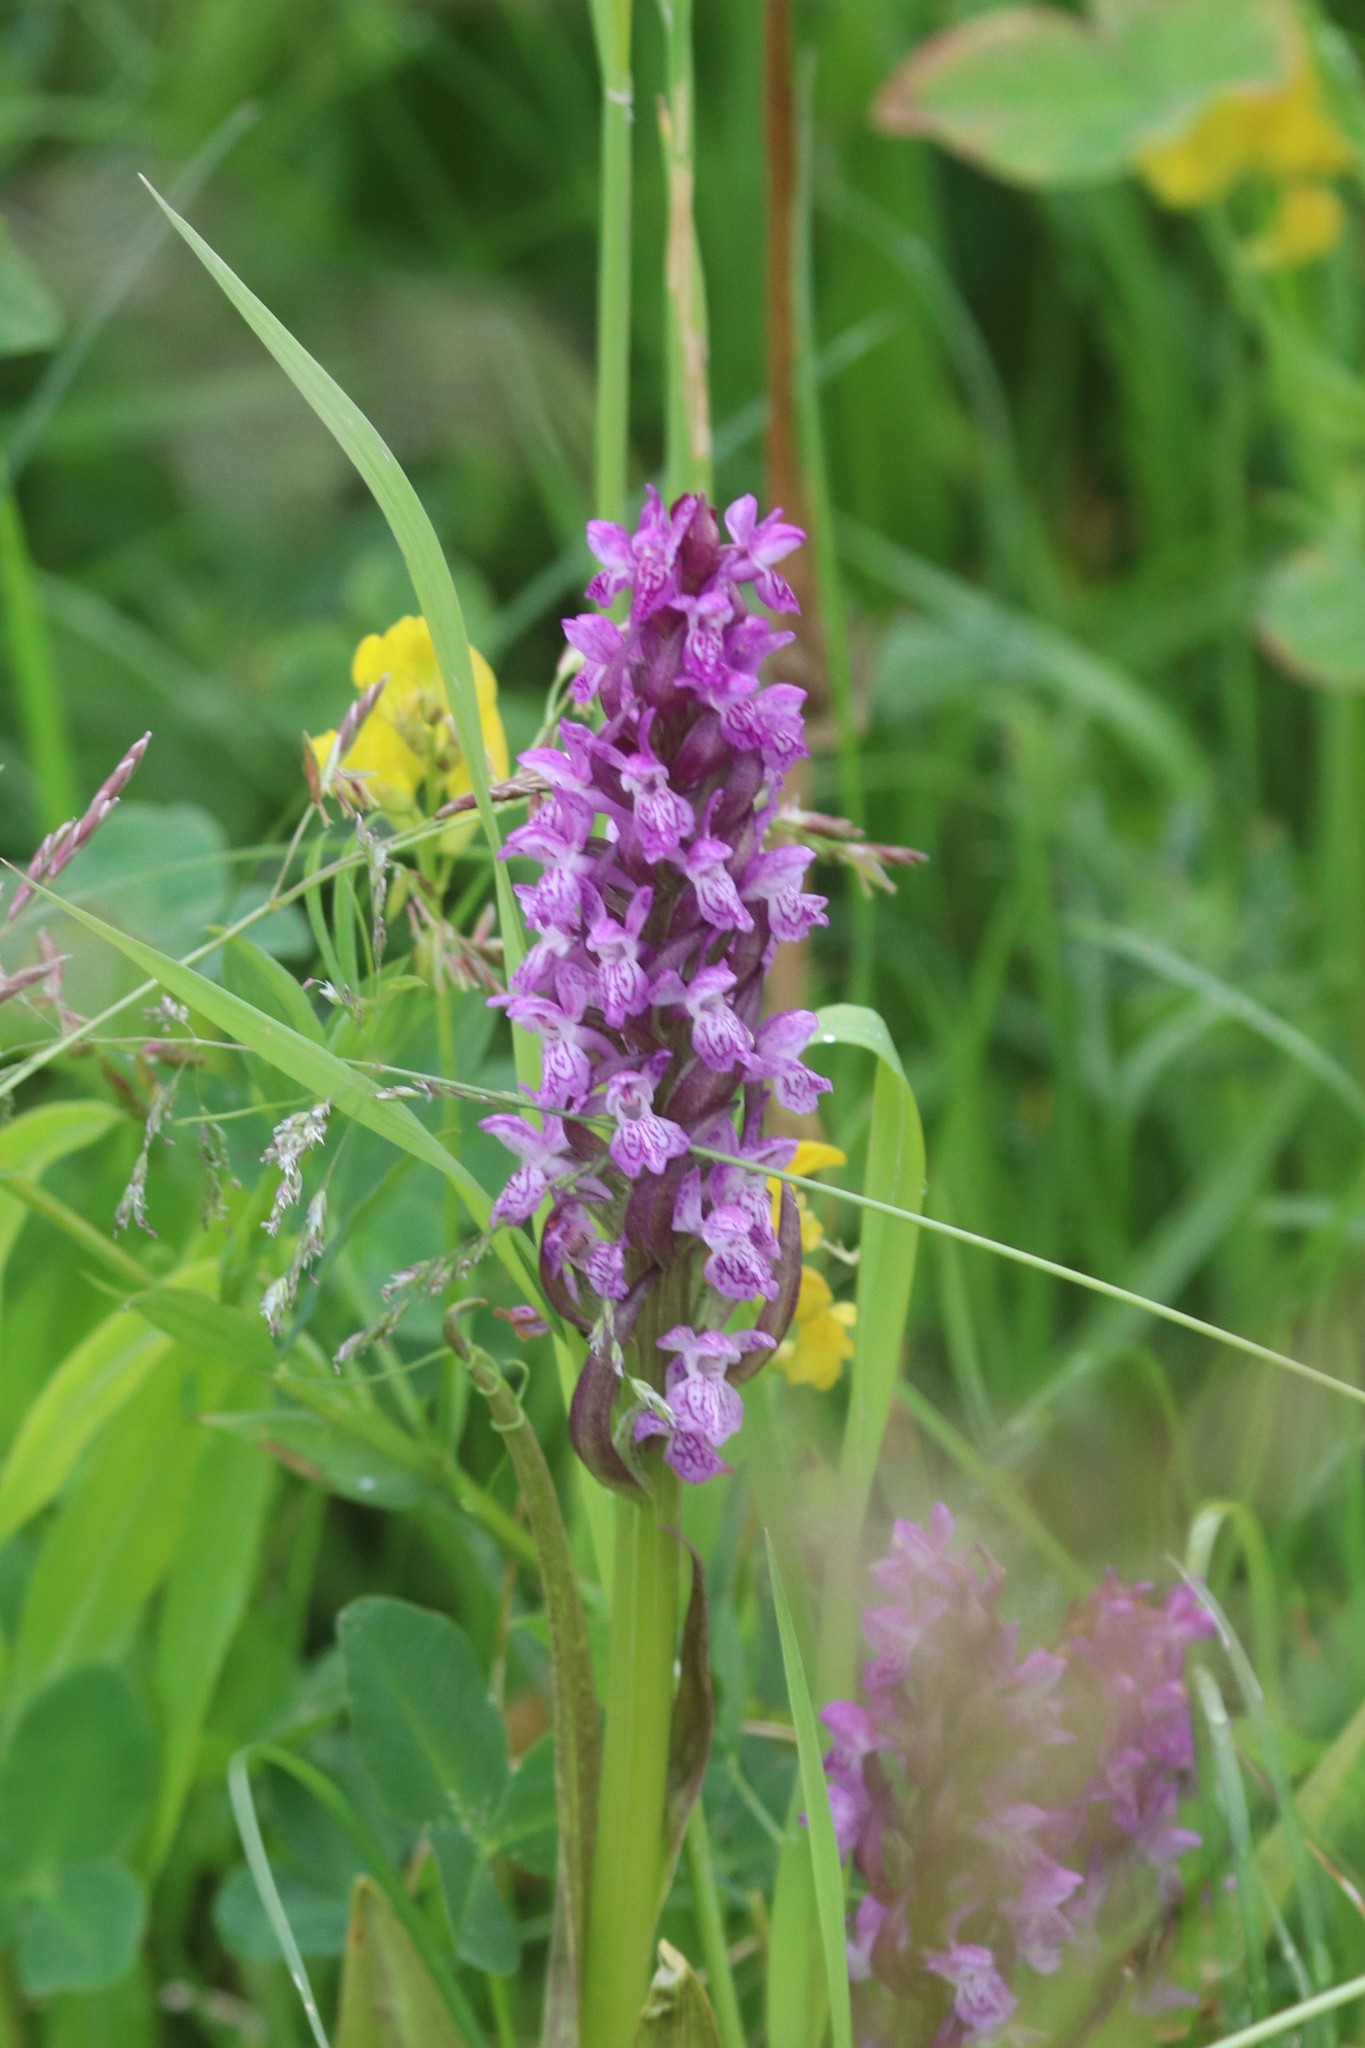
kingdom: Plantae
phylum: Tracheophyta
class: Liliopsida
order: Asparagales
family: Orchidaceae
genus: Dactylorhiza
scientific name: Dactylorhiza incarnata
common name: Early marsh-orchid
